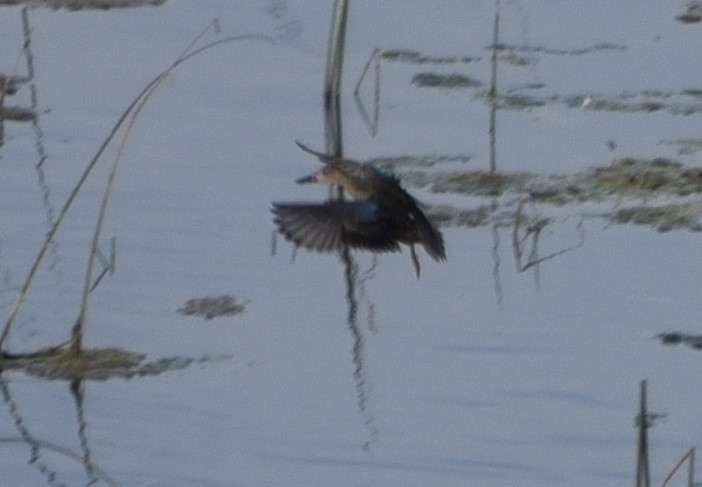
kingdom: Animalia
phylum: Chordata
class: Aves
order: Anseriformes
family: Anatidae
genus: Spatula
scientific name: Spatula discors
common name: Blue-winged teal
